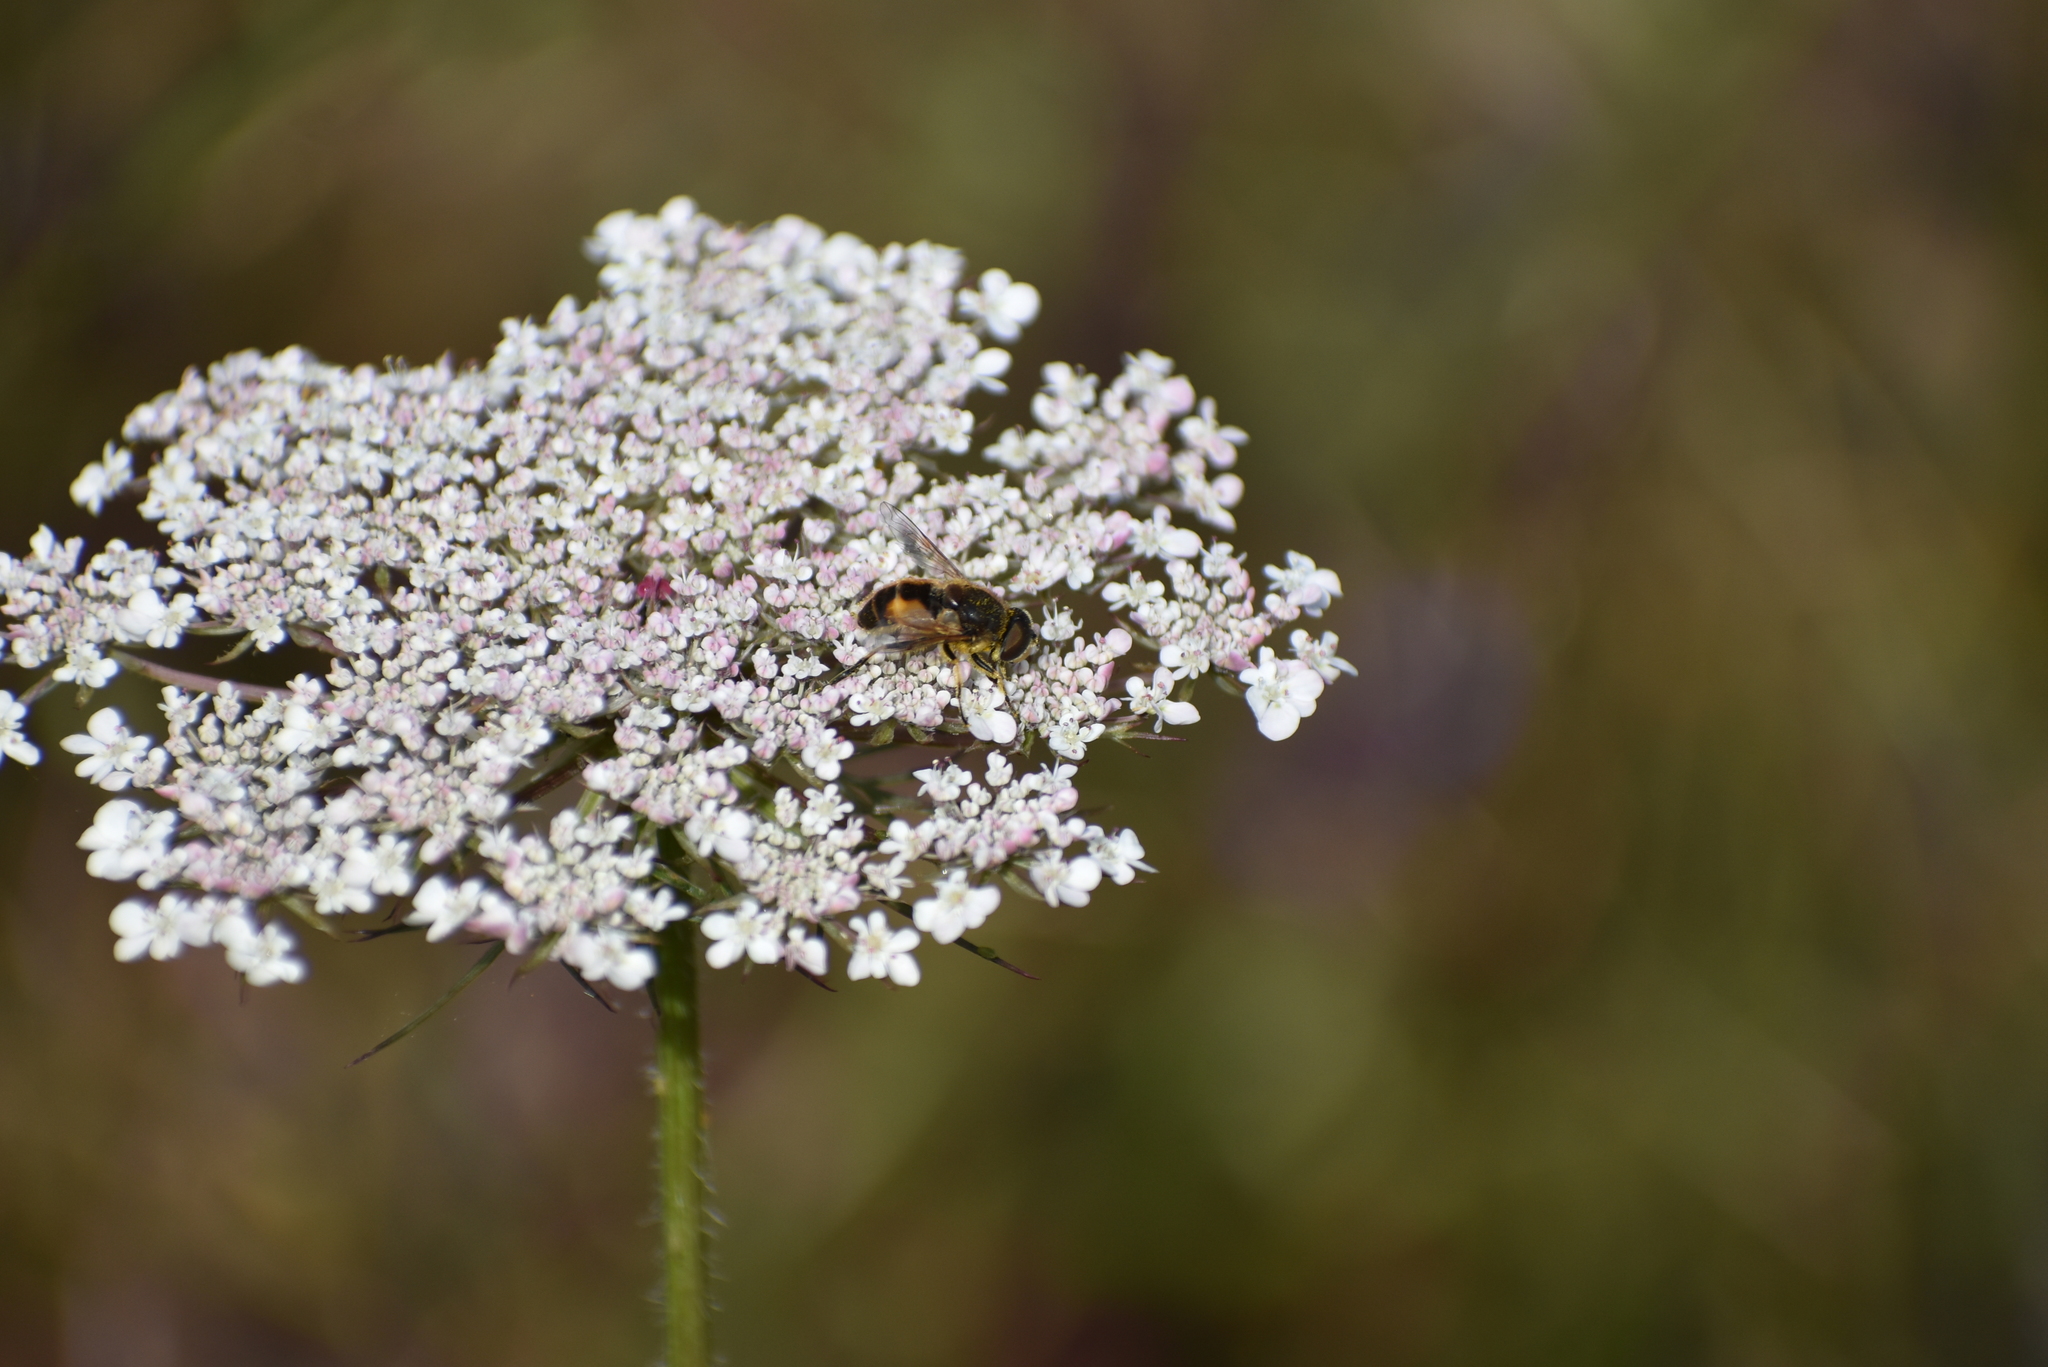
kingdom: Animalia
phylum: Arthropoda
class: Insecta
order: Diptera
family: Syrphidae
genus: Eristalis
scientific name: Eristalis arbustorum
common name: Hover fly
